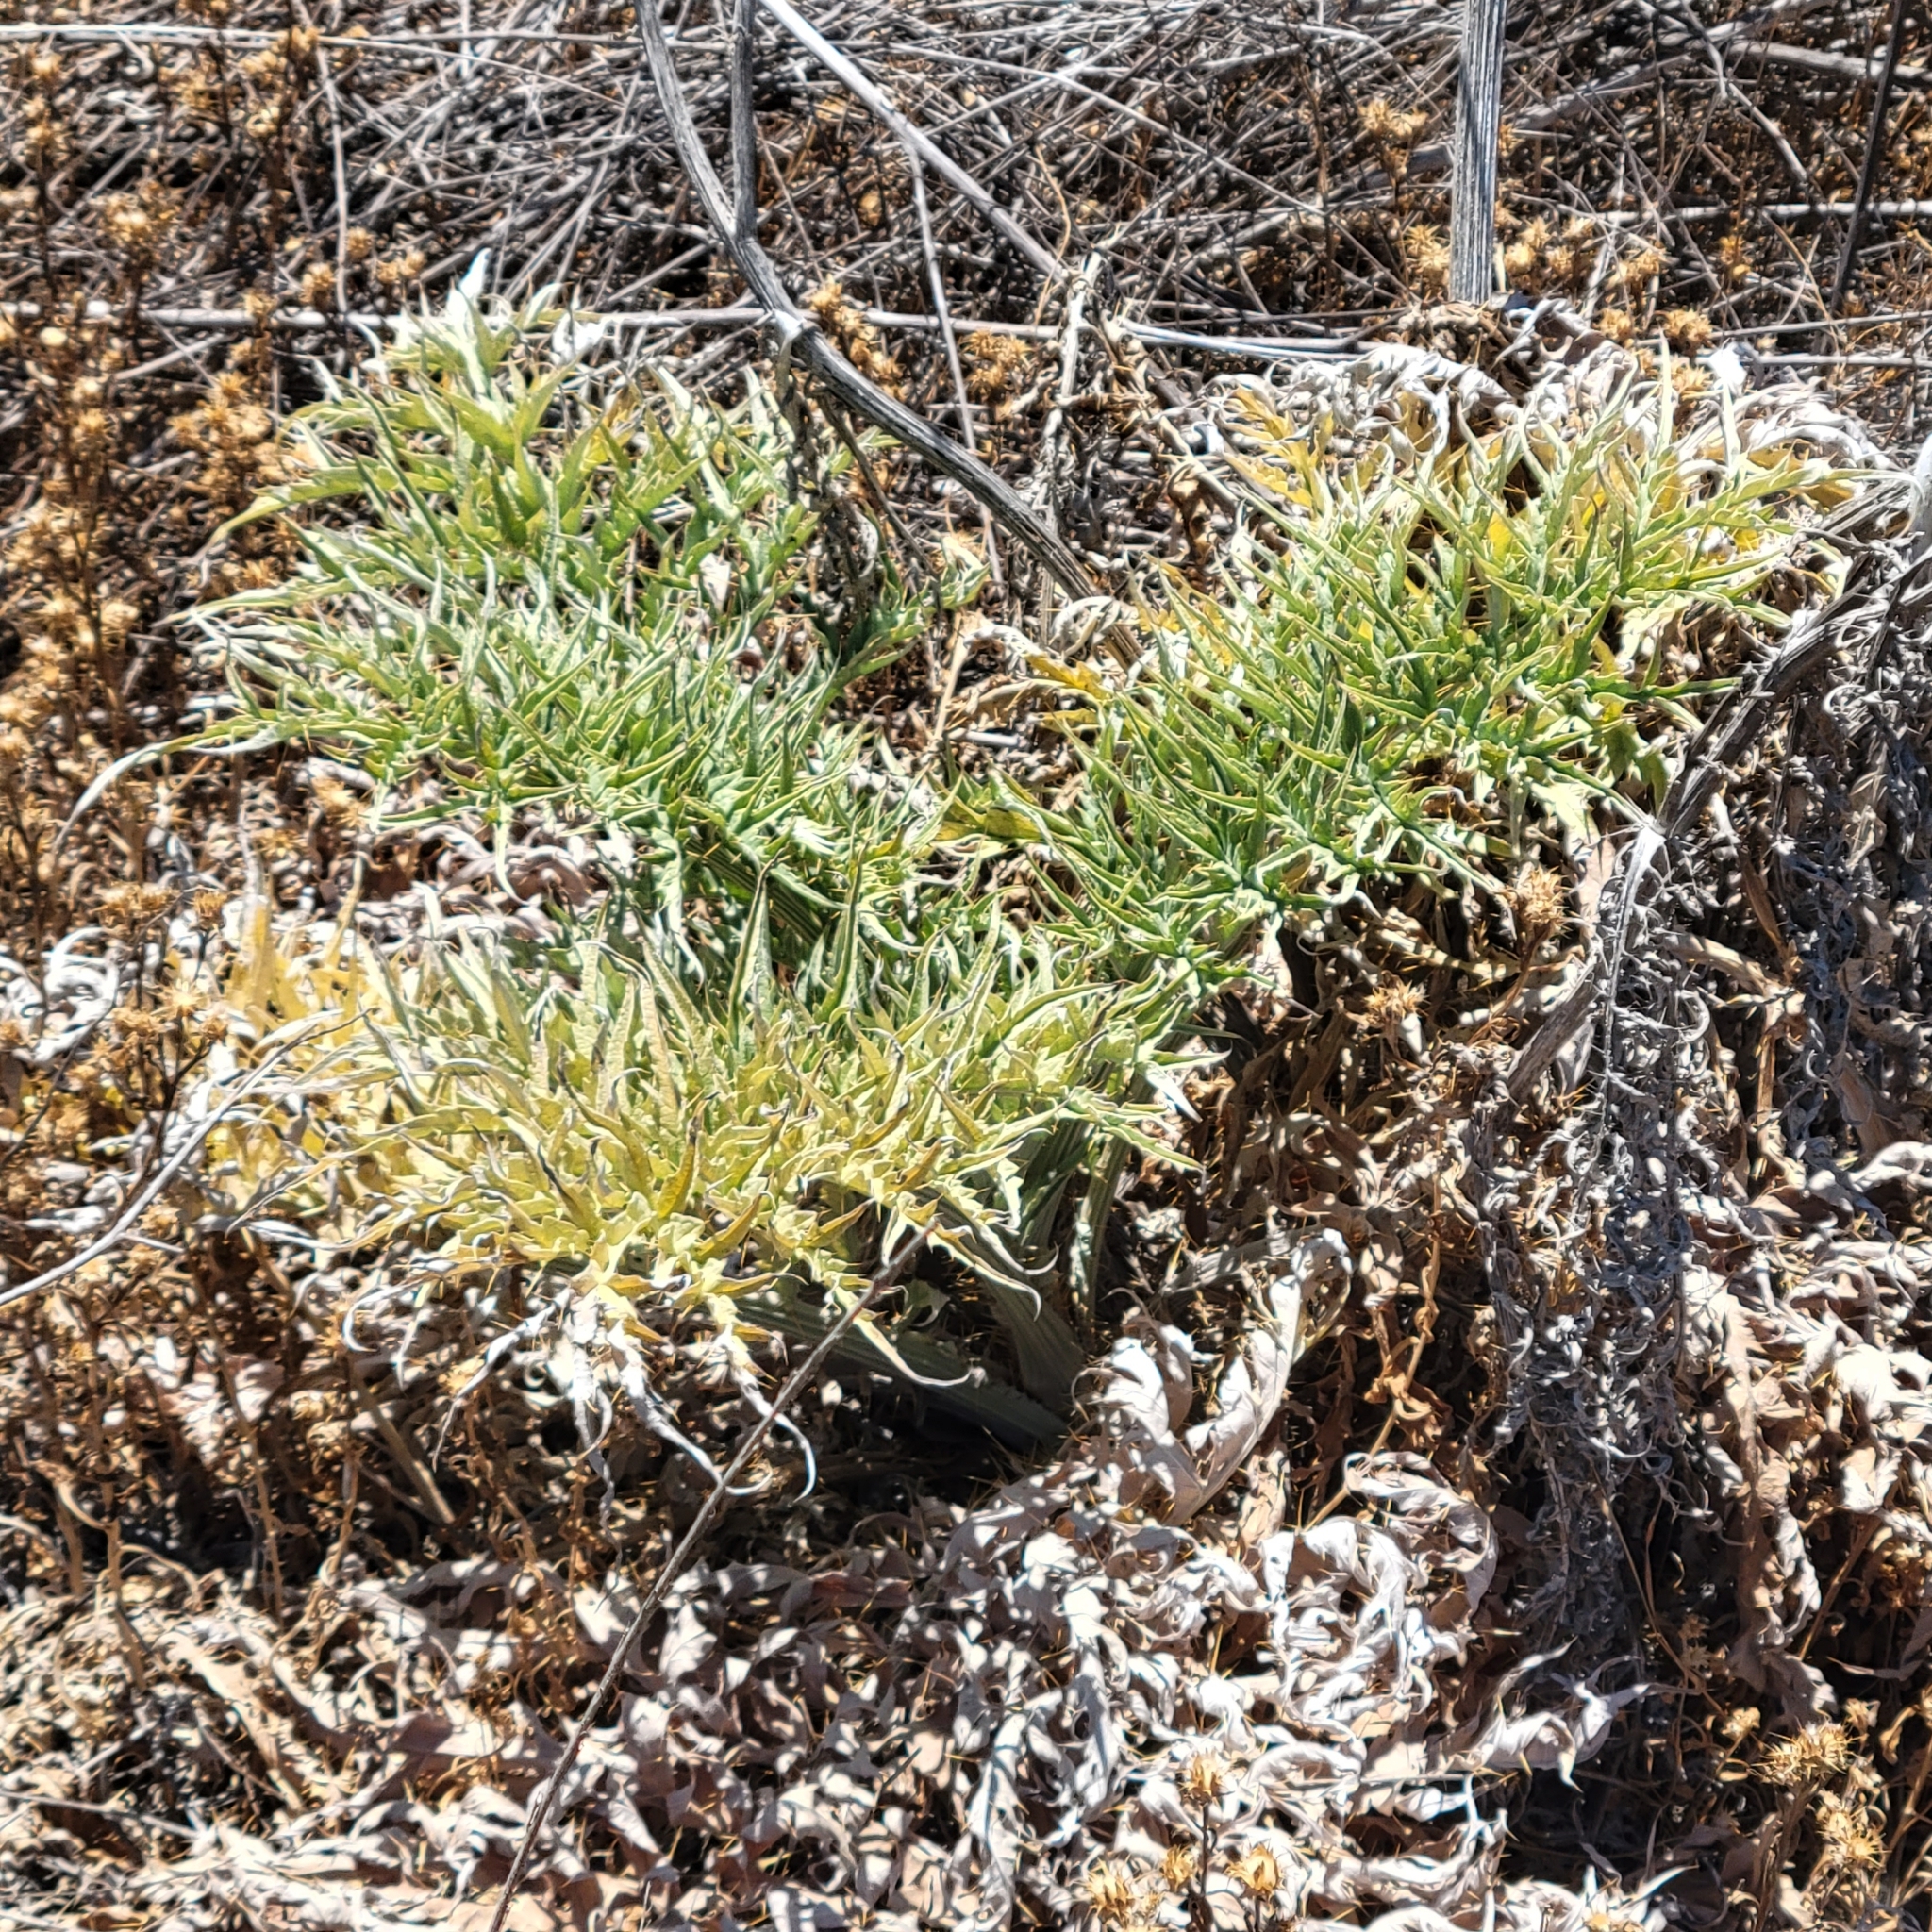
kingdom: Plantae
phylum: Tracheophyta
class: Magnoliopsida
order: Asterales
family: Asteraceae
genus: Cynara
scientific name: Cynara cardunculus
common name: Globe artichoke
